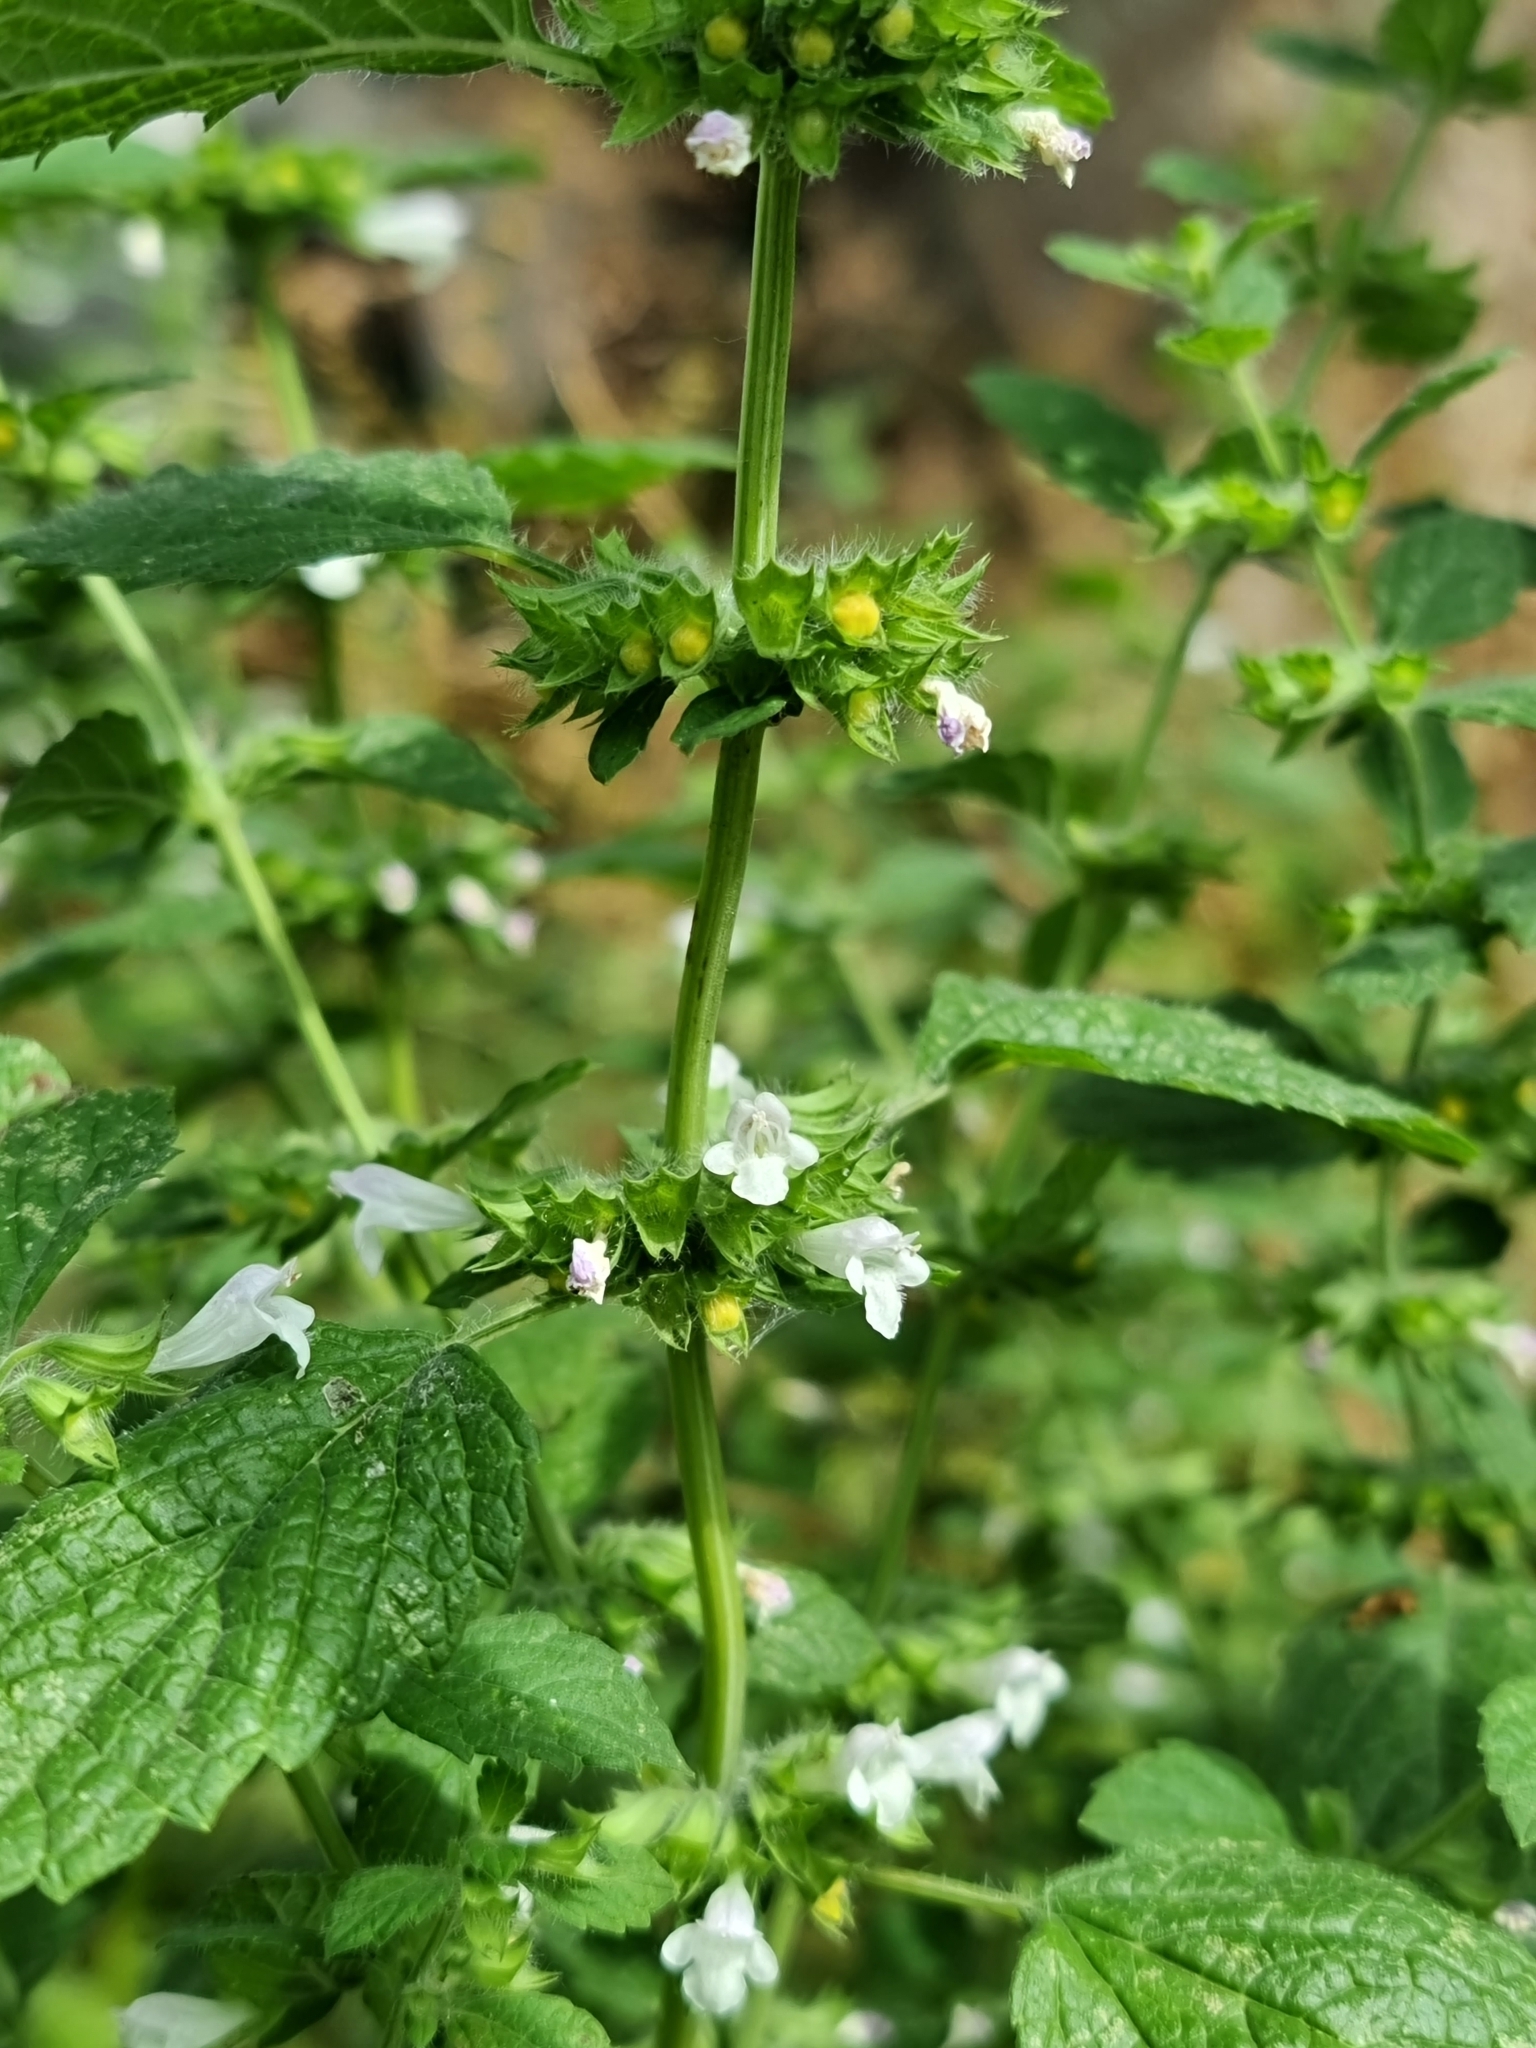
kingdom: Plantae
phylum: Tracheophyta
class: Magnoliopsida
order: Lamiales
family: Lamiaceae
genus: Melissa
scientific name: Melissa officinalis
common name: Balm
